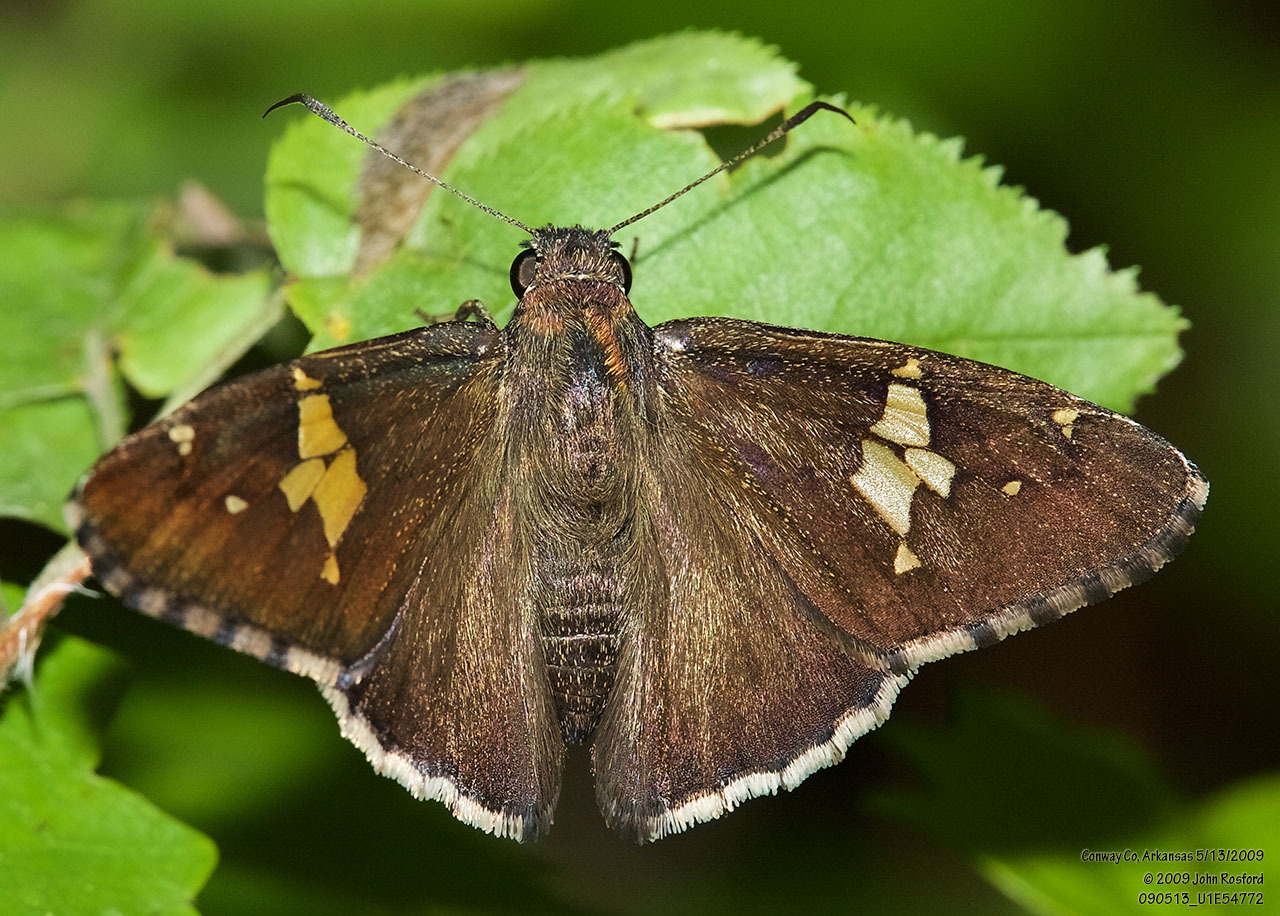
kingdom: Animalia
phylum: Arthropoda
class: Insecta
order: Lepidoptera
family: Hesperiidae
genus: Thorybes
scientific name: Thorybes lyciades
